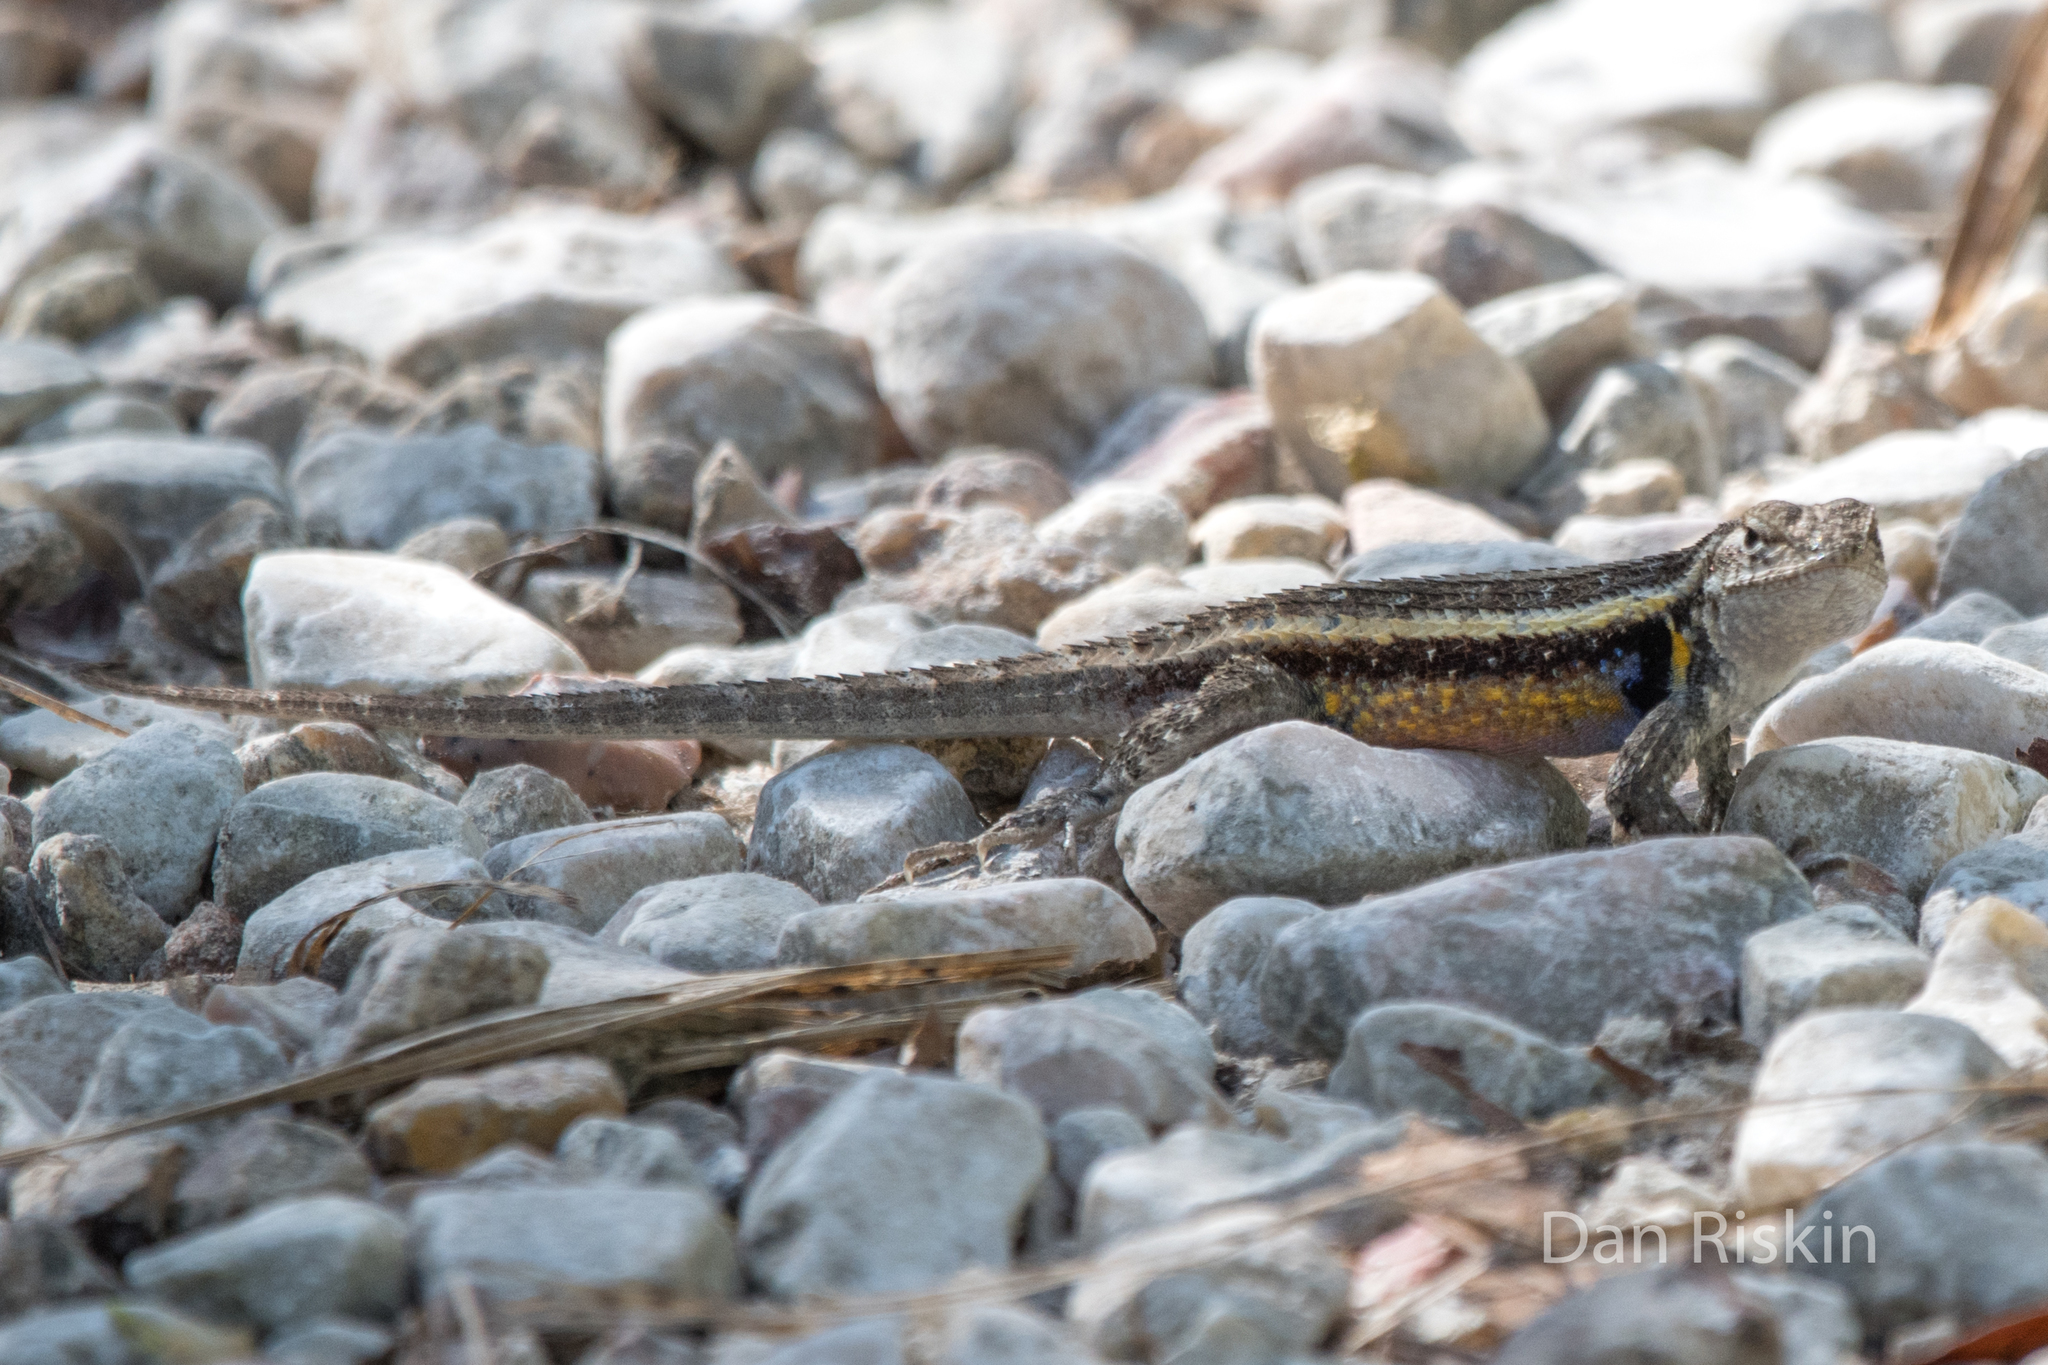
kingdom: Animalia
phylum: Chordata
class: Squamata
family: Phrynosomatidae
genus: Sceloporus
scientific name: Sceloporus chrysostictus
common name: Yellow-spotted spiny lizard
